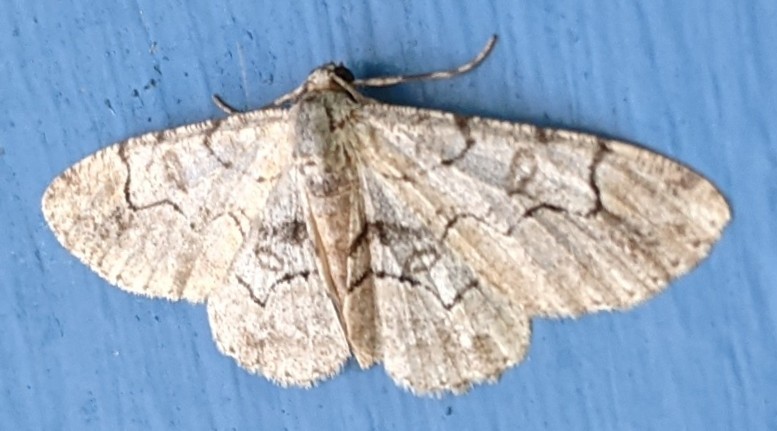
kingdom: Animalia
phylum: Arthropoda
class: Insecta
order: Lepidoptera
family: Geometridae
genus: Iridopsis
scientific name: Iridopsis larvaria
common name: Bent-line gray
